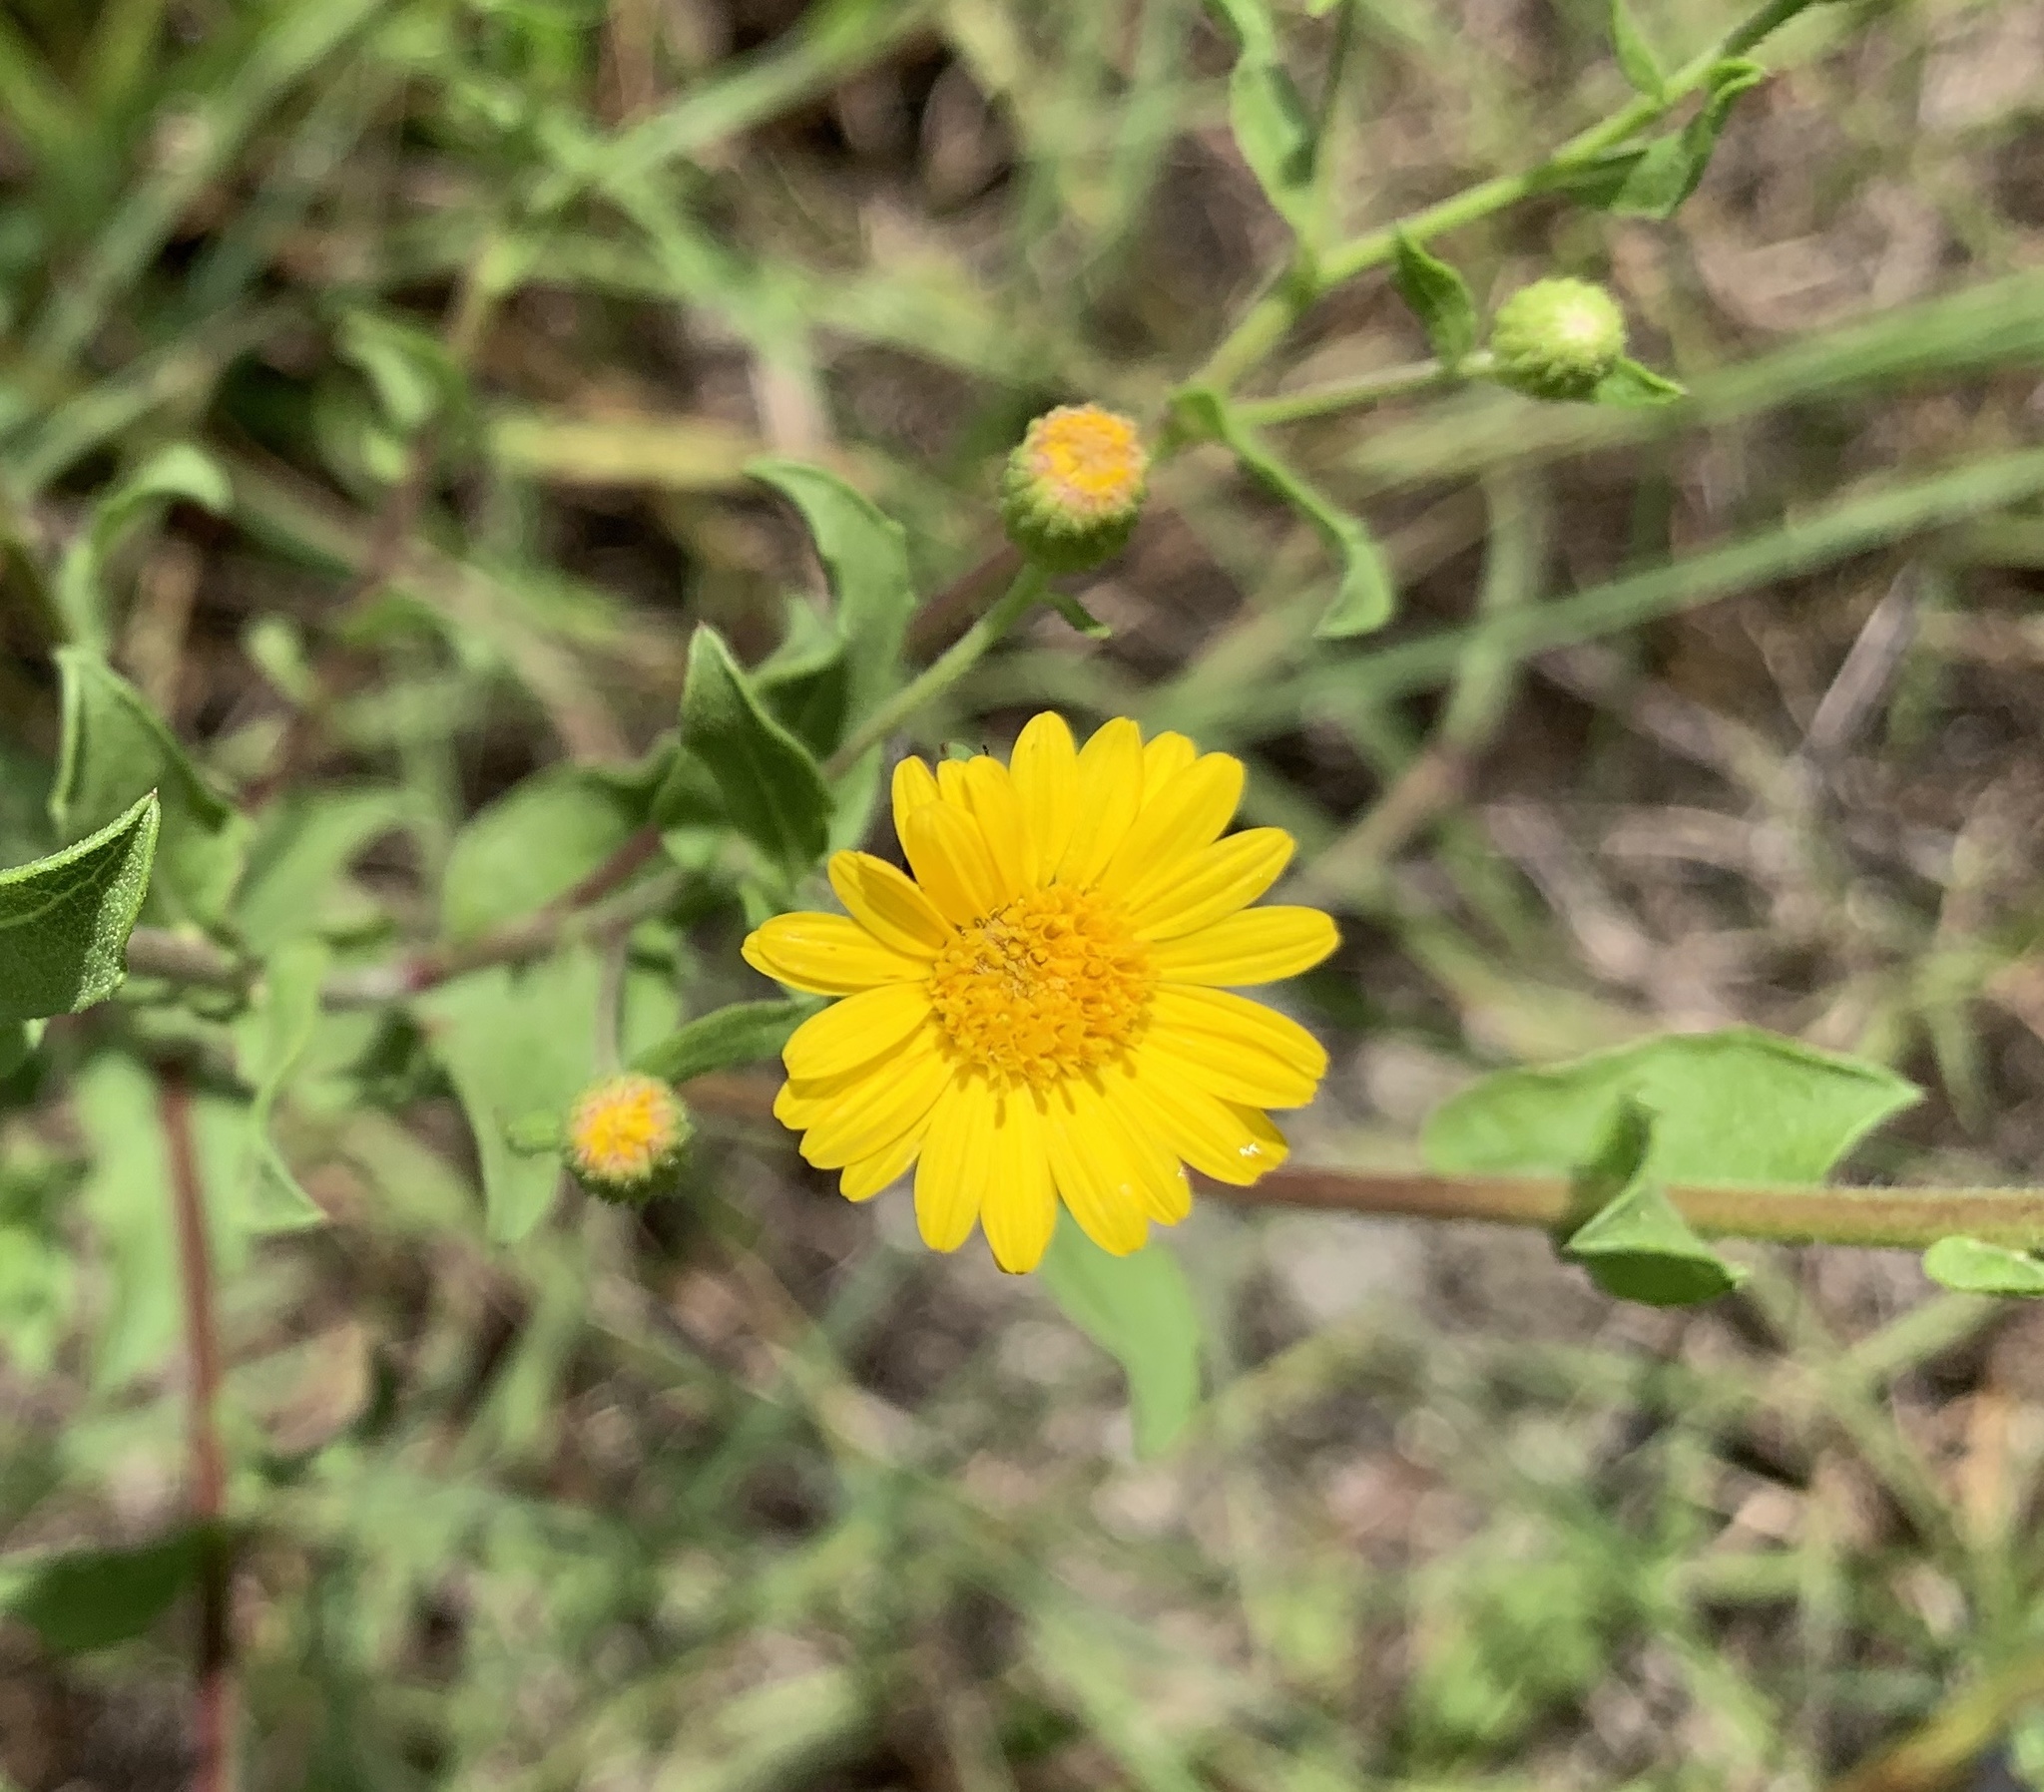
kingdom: Plantae
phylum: Tracheophyta
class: Magnoliopsida
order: Asterales
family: Asteraceae
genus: Heterotheca
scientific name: Heterotheca subaxillaris
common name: Camphorweed
